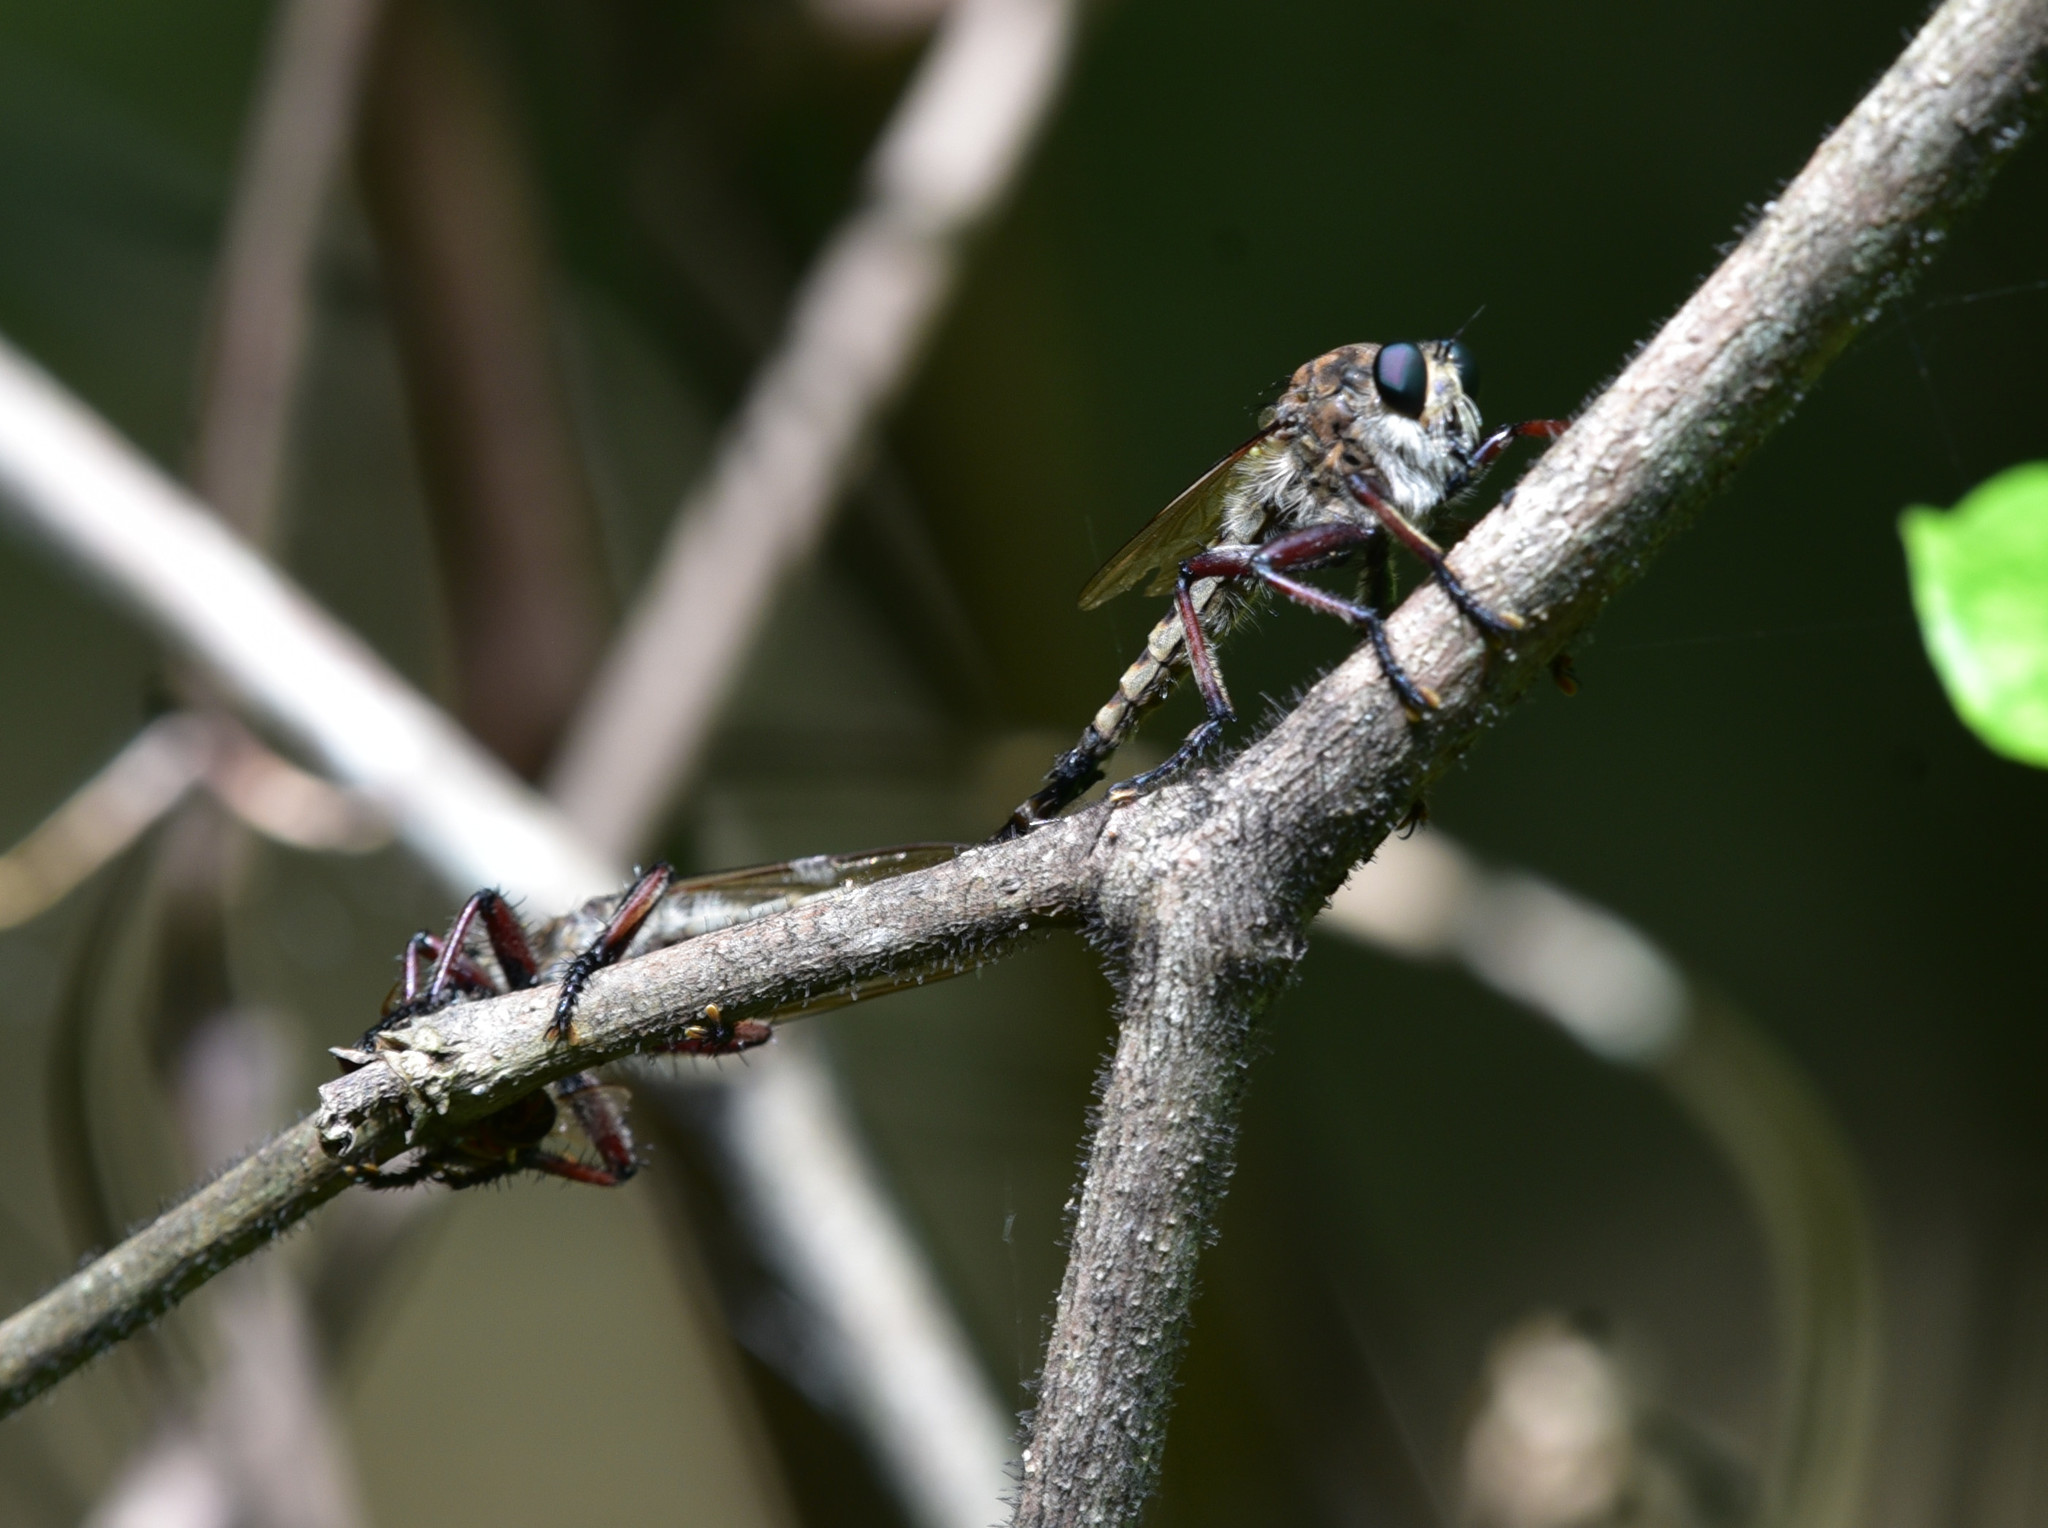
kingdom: Animalia
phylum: Arthropoda
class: Insecta
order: Diptera
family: Asilidae
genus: Promachus
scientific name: Promachus hinei
